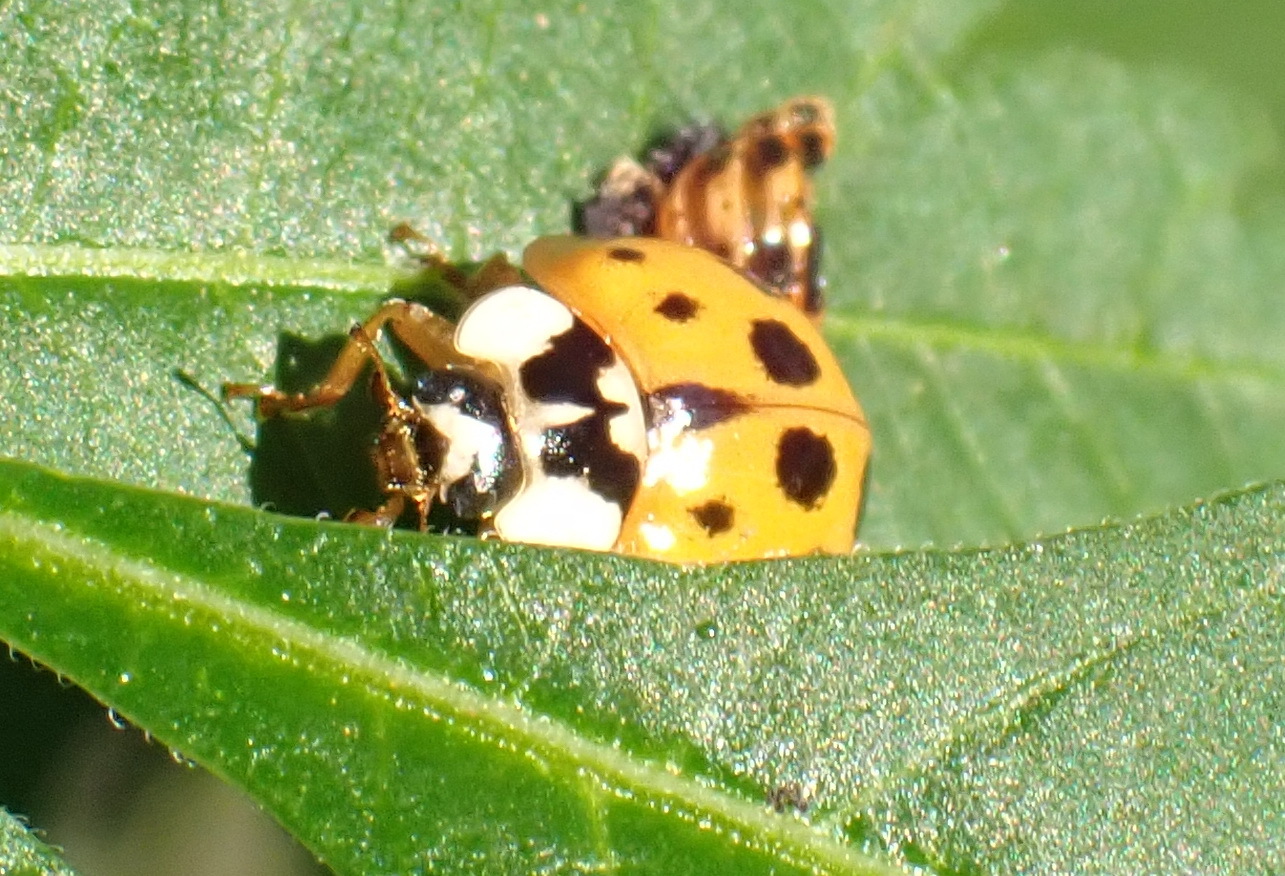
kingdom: Animalia
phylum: Arthropoda
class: Insecta
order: Coleoptera
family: Coccinellidae
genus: Harmonia
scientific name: Harmonia axyridis
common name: Harlequin ladybird
